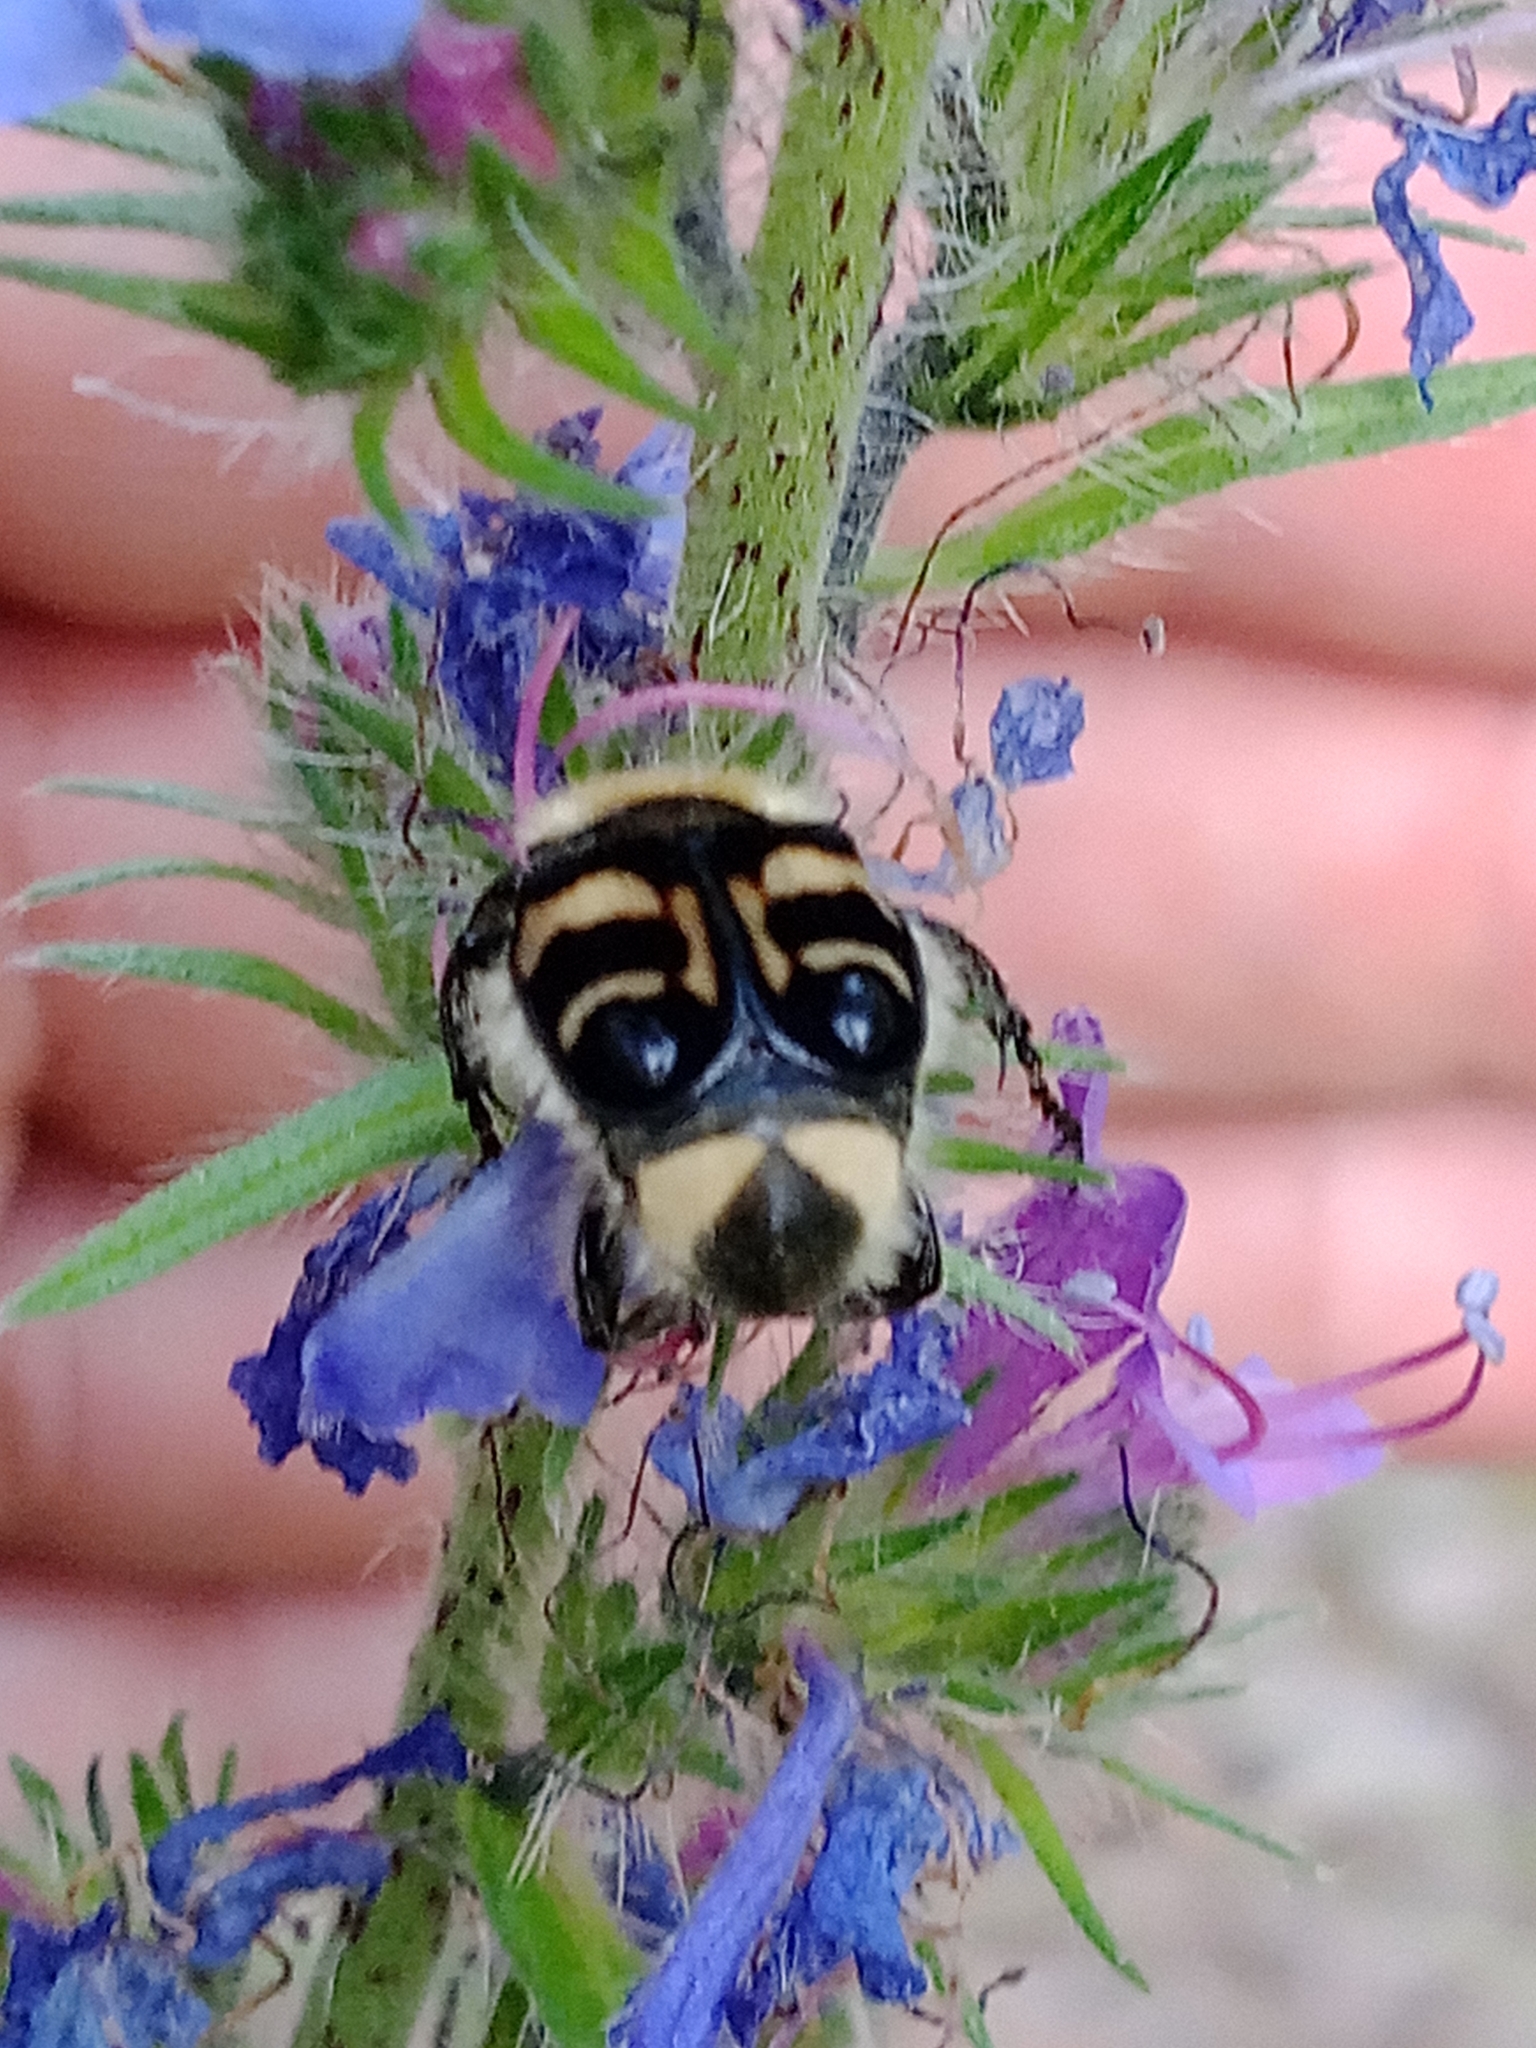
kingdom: Animalia
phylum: Arthropoda
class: Insecta
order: Coleoptera
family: Scarabaeidae
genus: Trichius
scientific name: Trichius fasciatus
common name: Bee beetle
